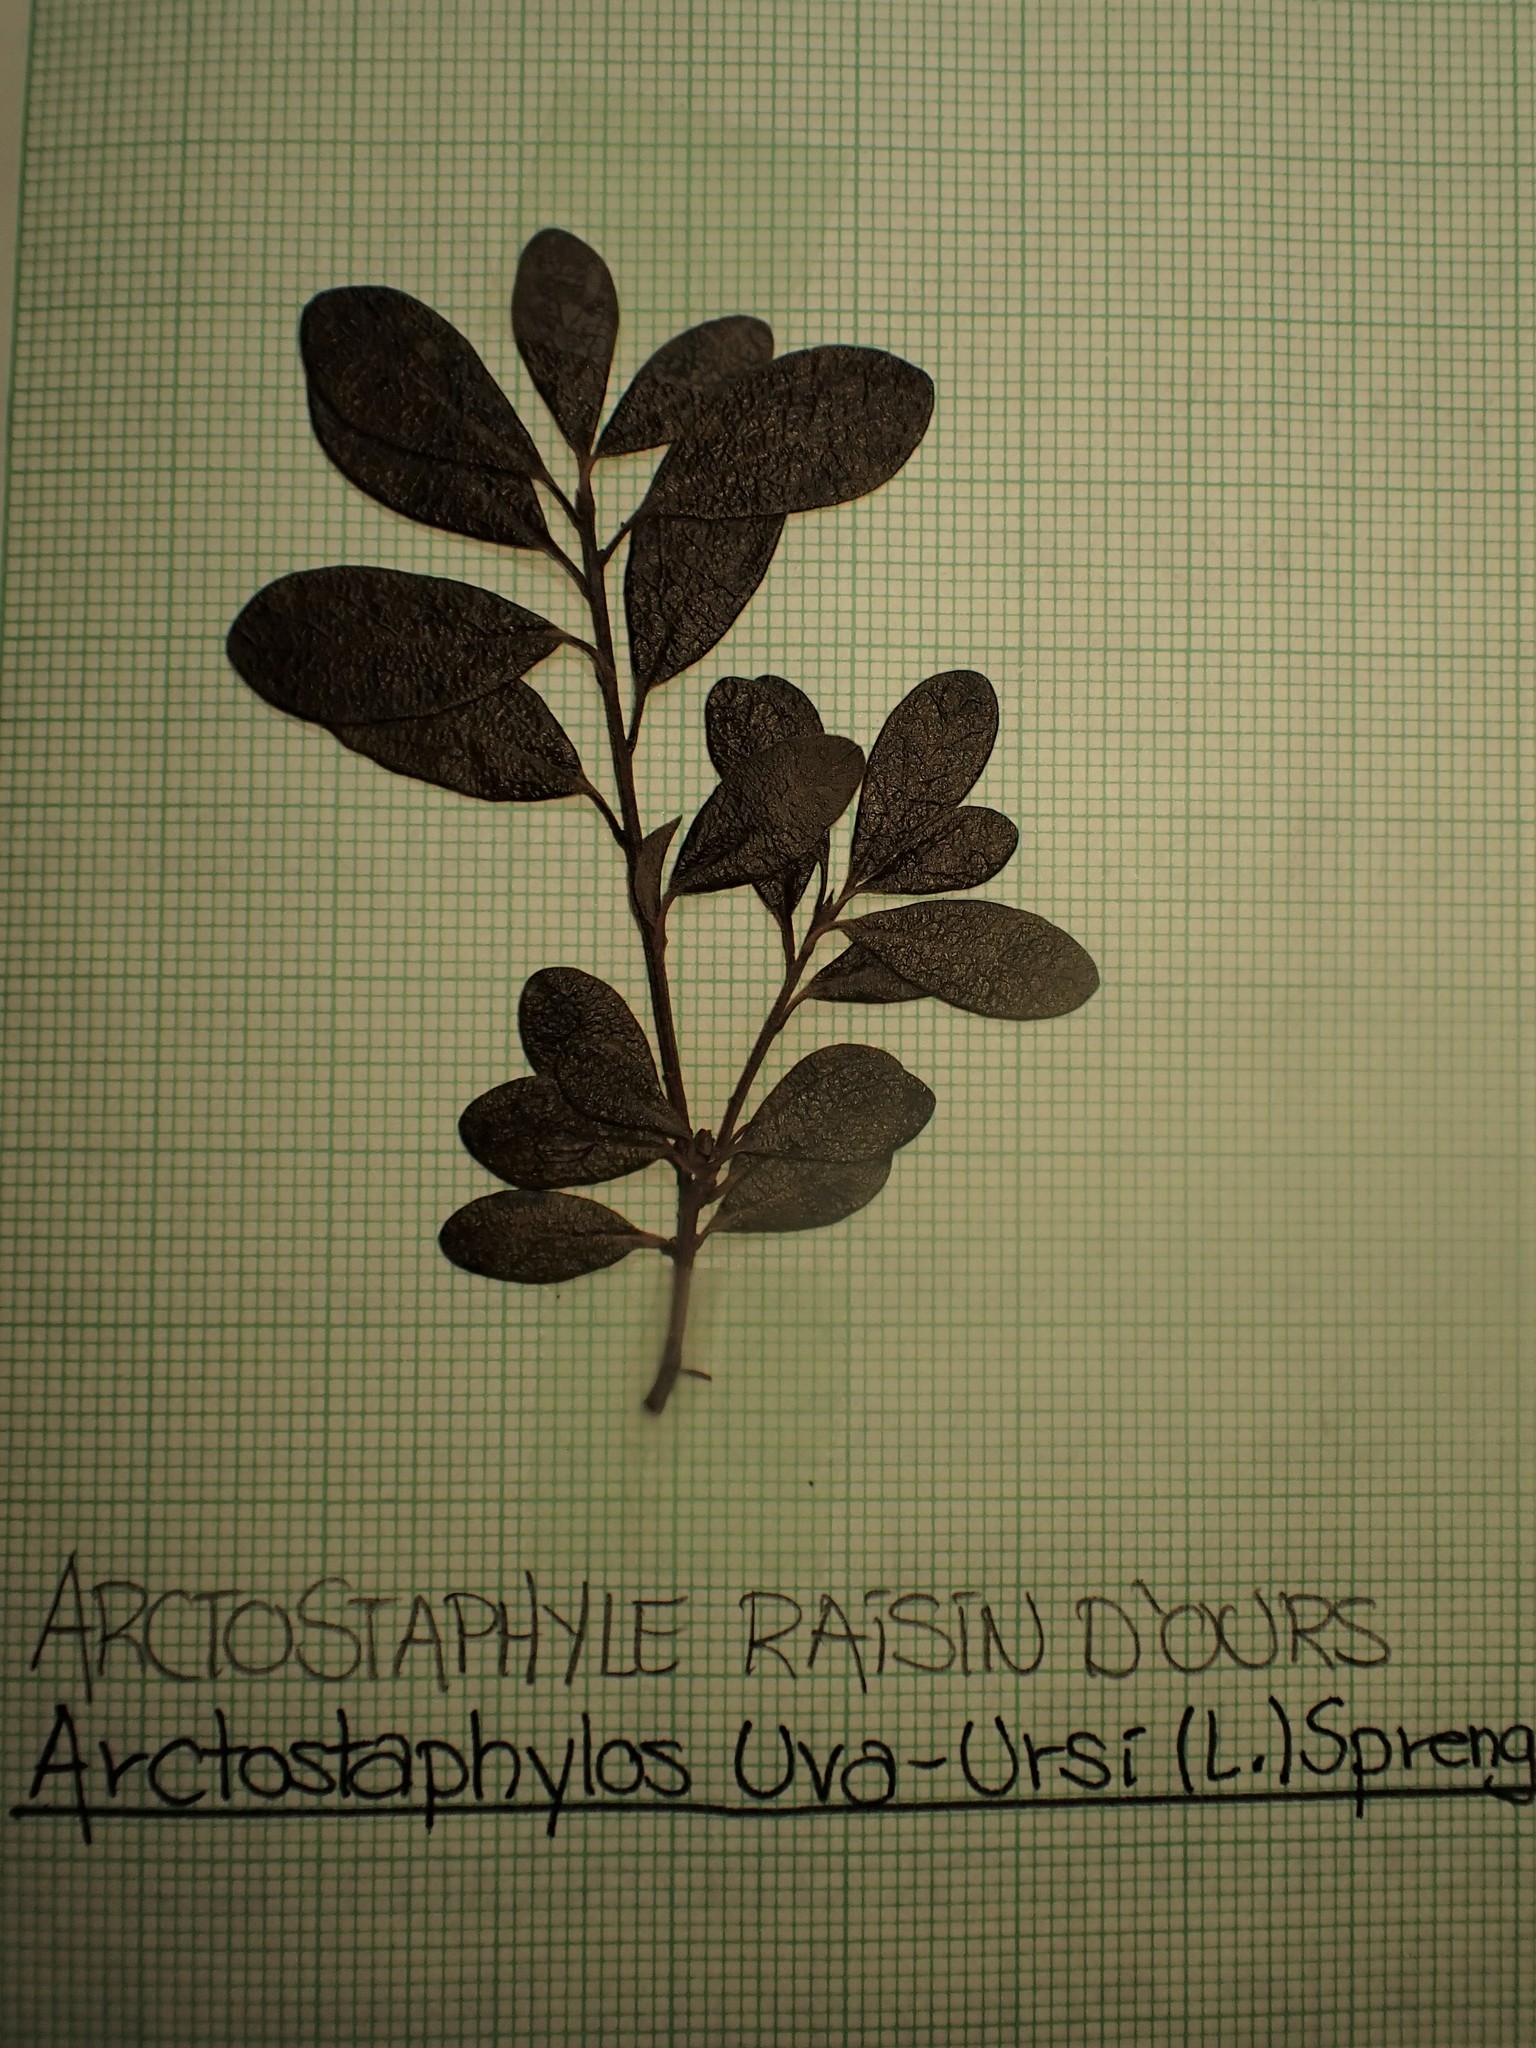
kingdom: Plantae
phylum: Tracheophyta
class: Magnoliopsida
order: Ericales
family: Ericaceae
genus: Arctostaphylos
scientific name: Arctostaphylos uva-ursi
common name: Bearberry
